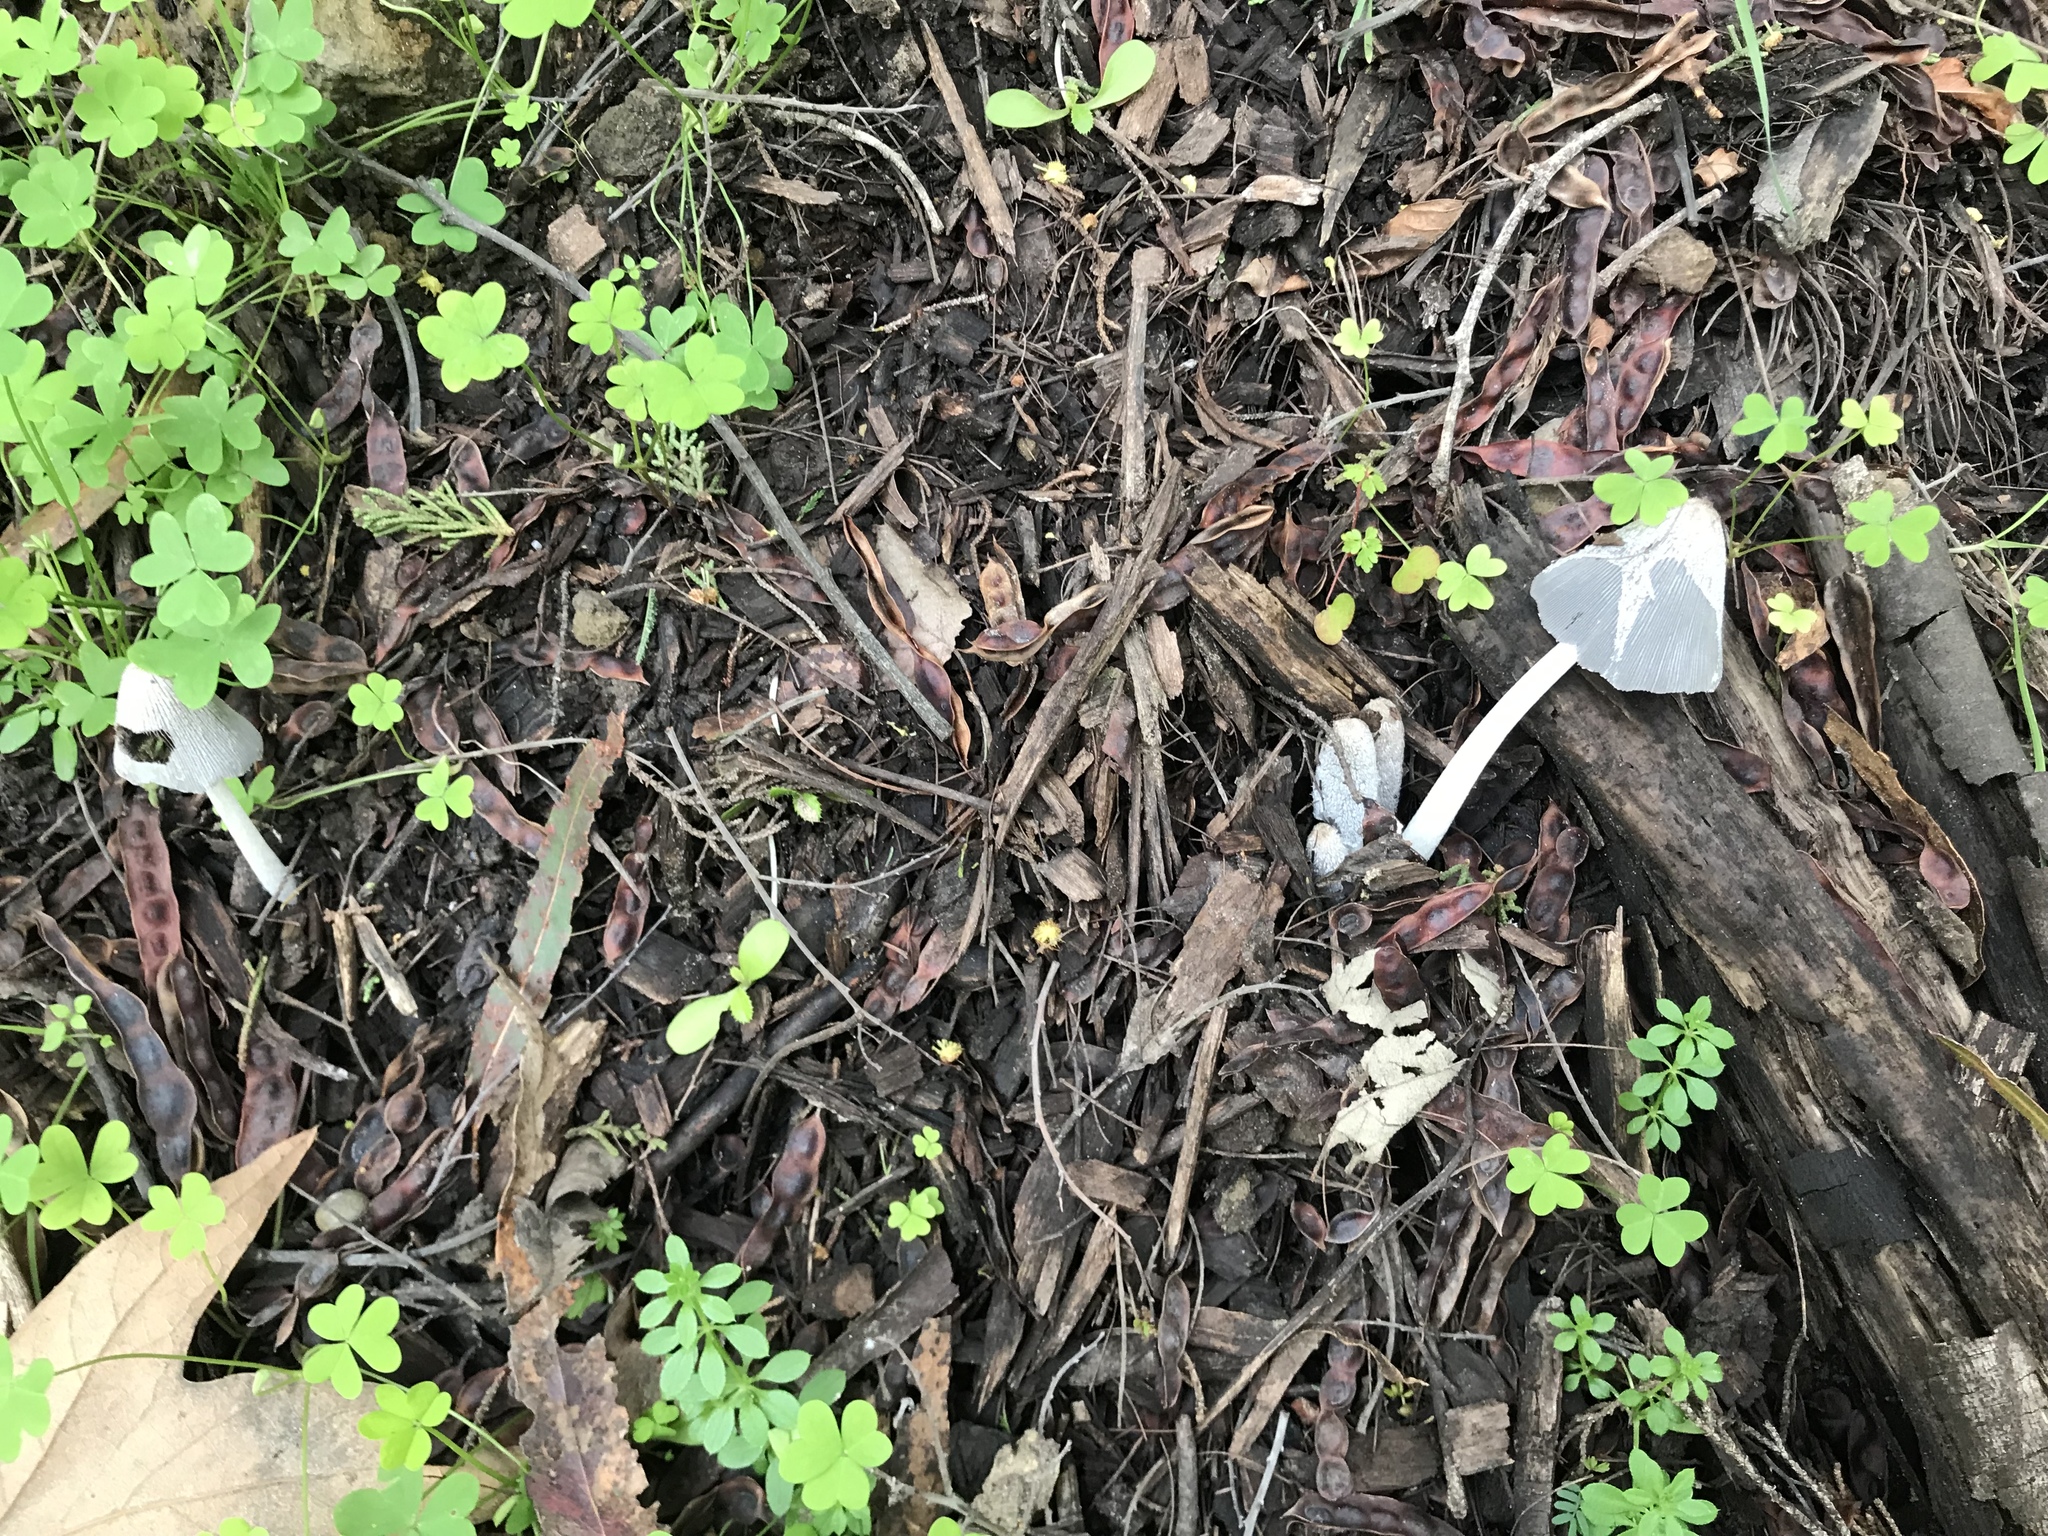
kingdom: Fungi
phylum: Basidiomycota
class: Agaricomycetes
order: Agaricales
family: Psathyrellaceae
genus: Coprinopsis
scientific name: Coprinopsis lagopus
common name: Hare'sfoot inkcap
